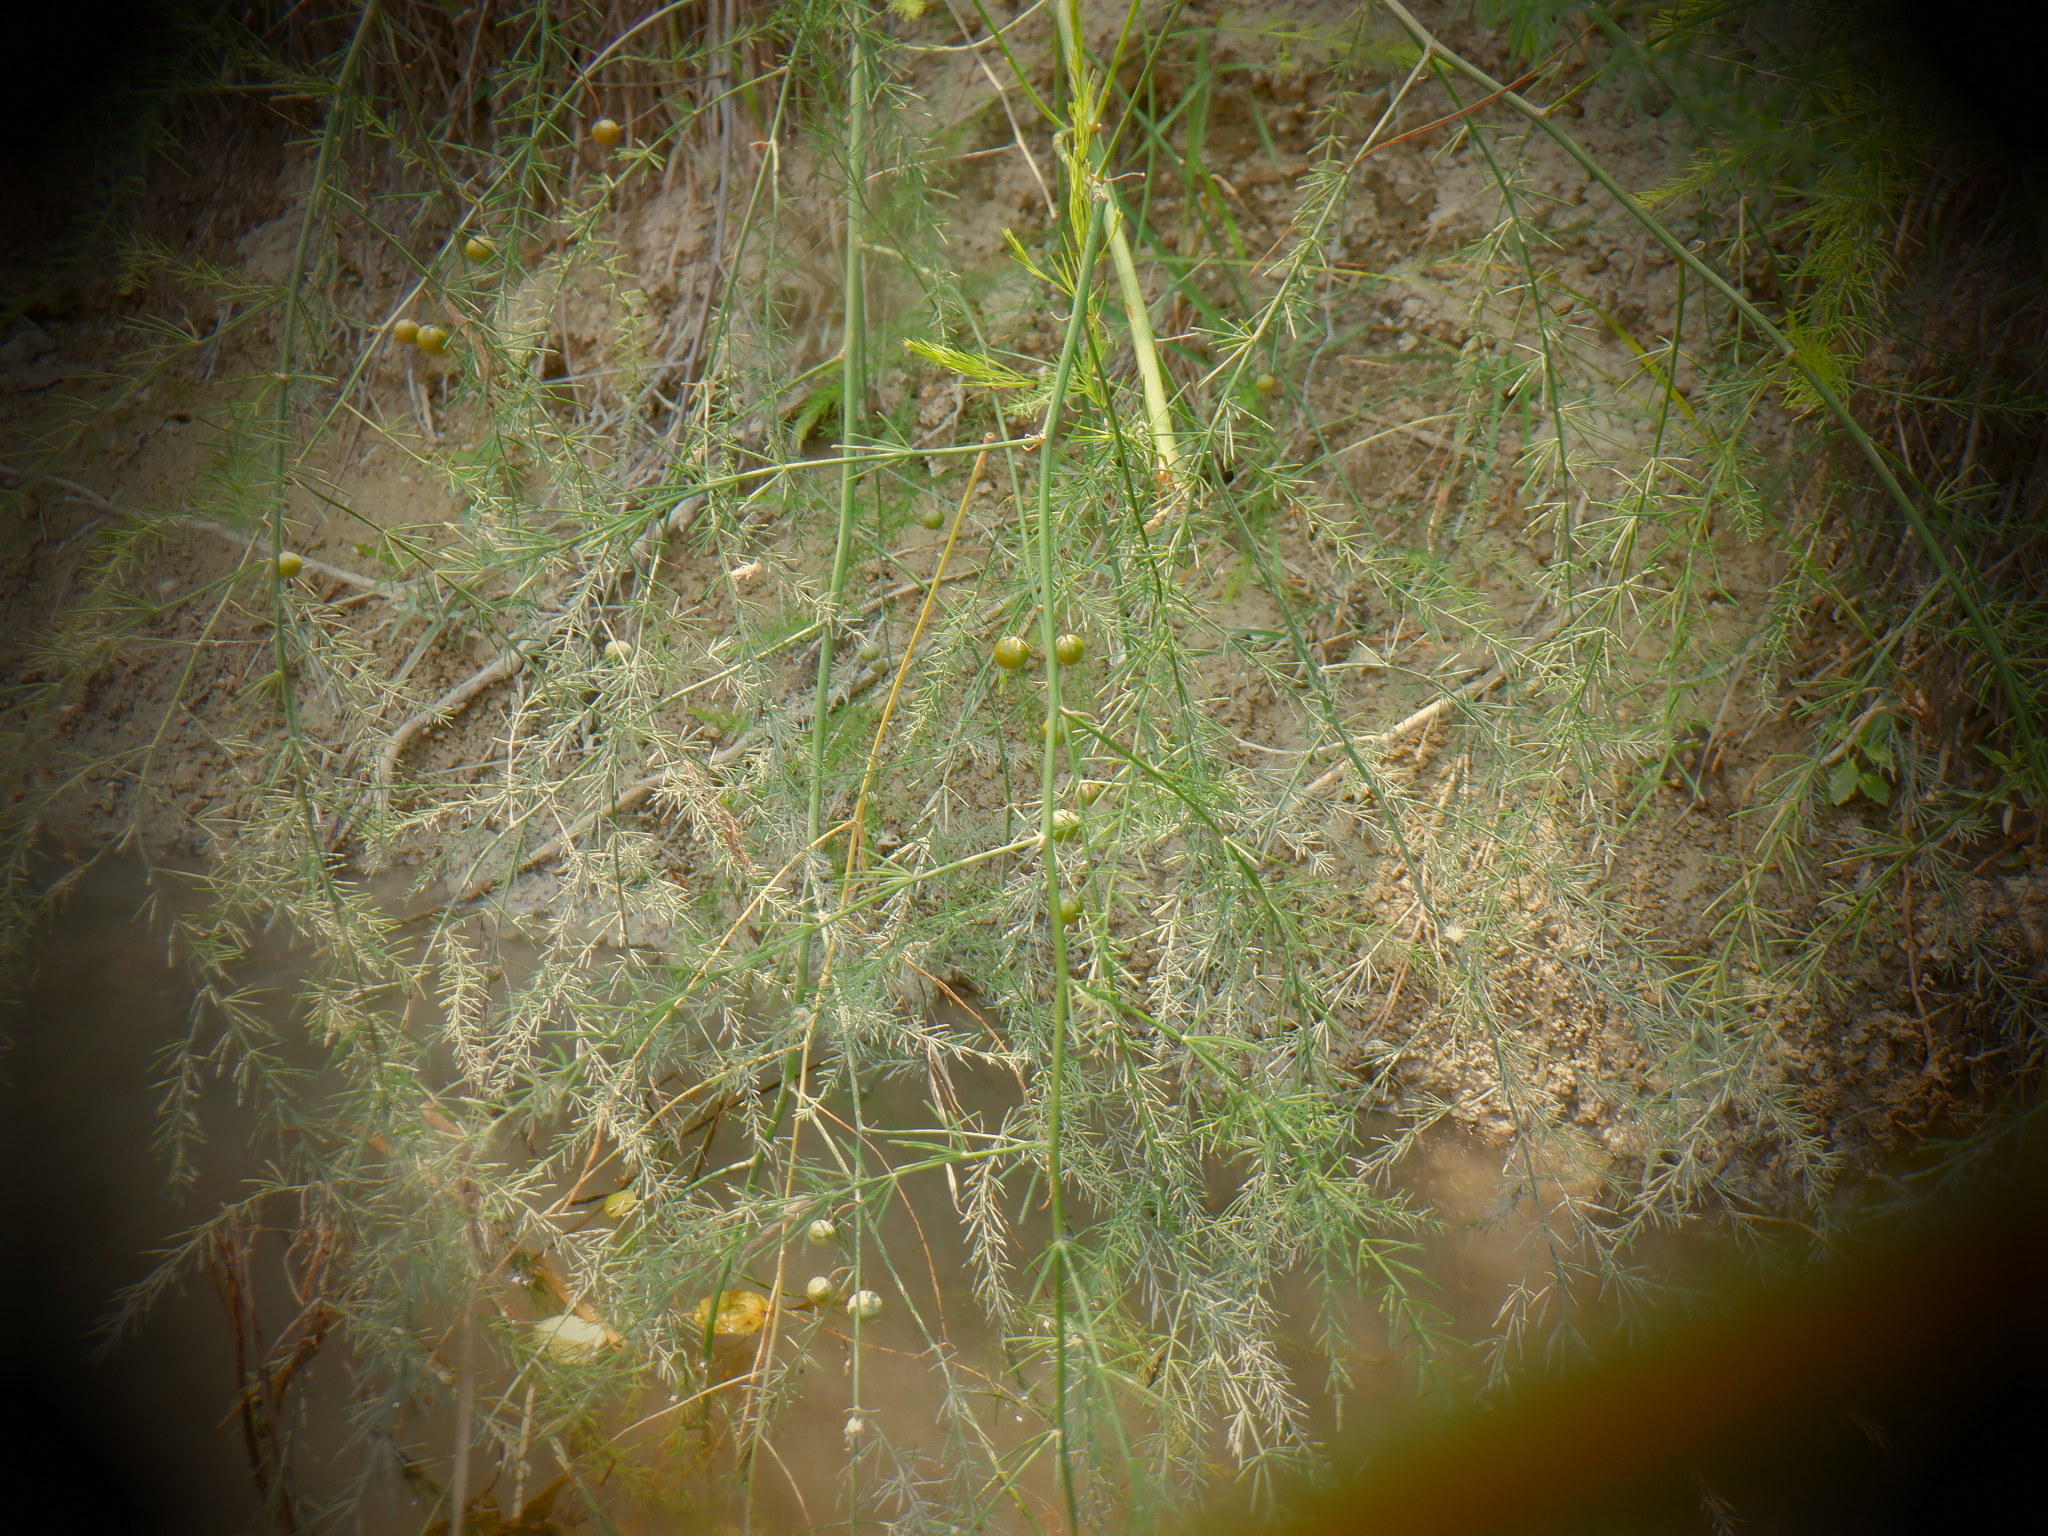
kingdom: Plantae
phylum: Tracheophyta
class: Liliopsida
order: Asparagales
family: Asparagaceae
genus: Asparagus
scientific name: Asparagus officinalis
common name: Garden asparagus
